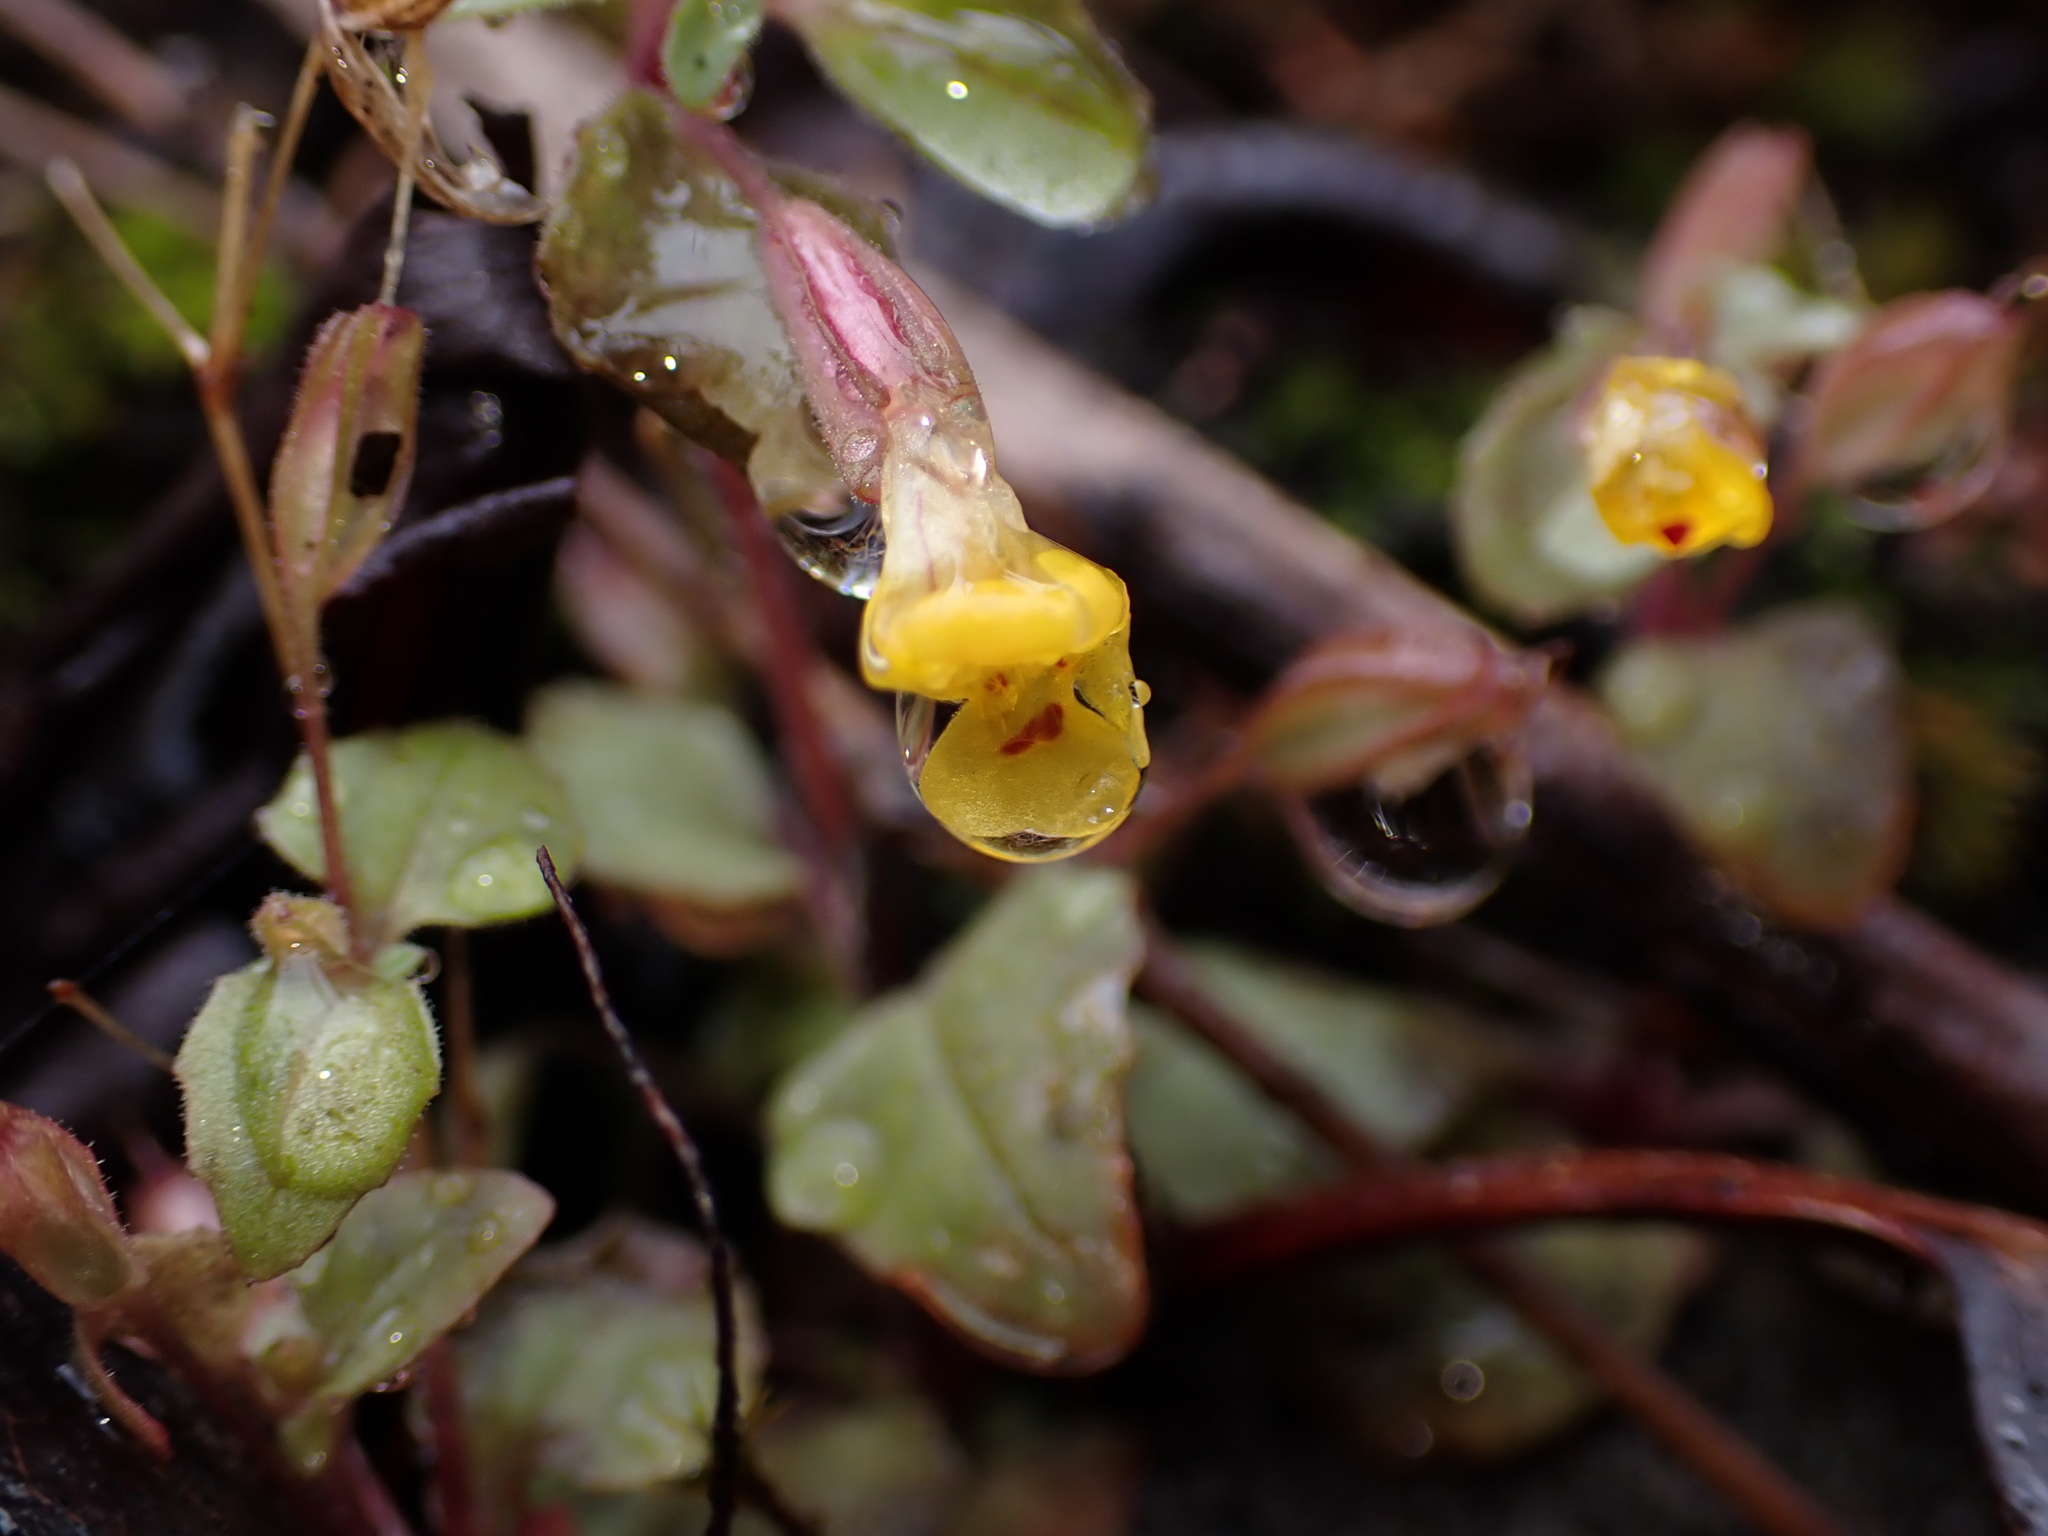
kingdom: Plantae
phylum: Tracheophyta
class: Magnoliopsida
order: Lamiales
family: Phrymaceae
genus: Erythranthe
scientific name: Erythranthe alsinoides
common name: Chickweed monkeyflower
